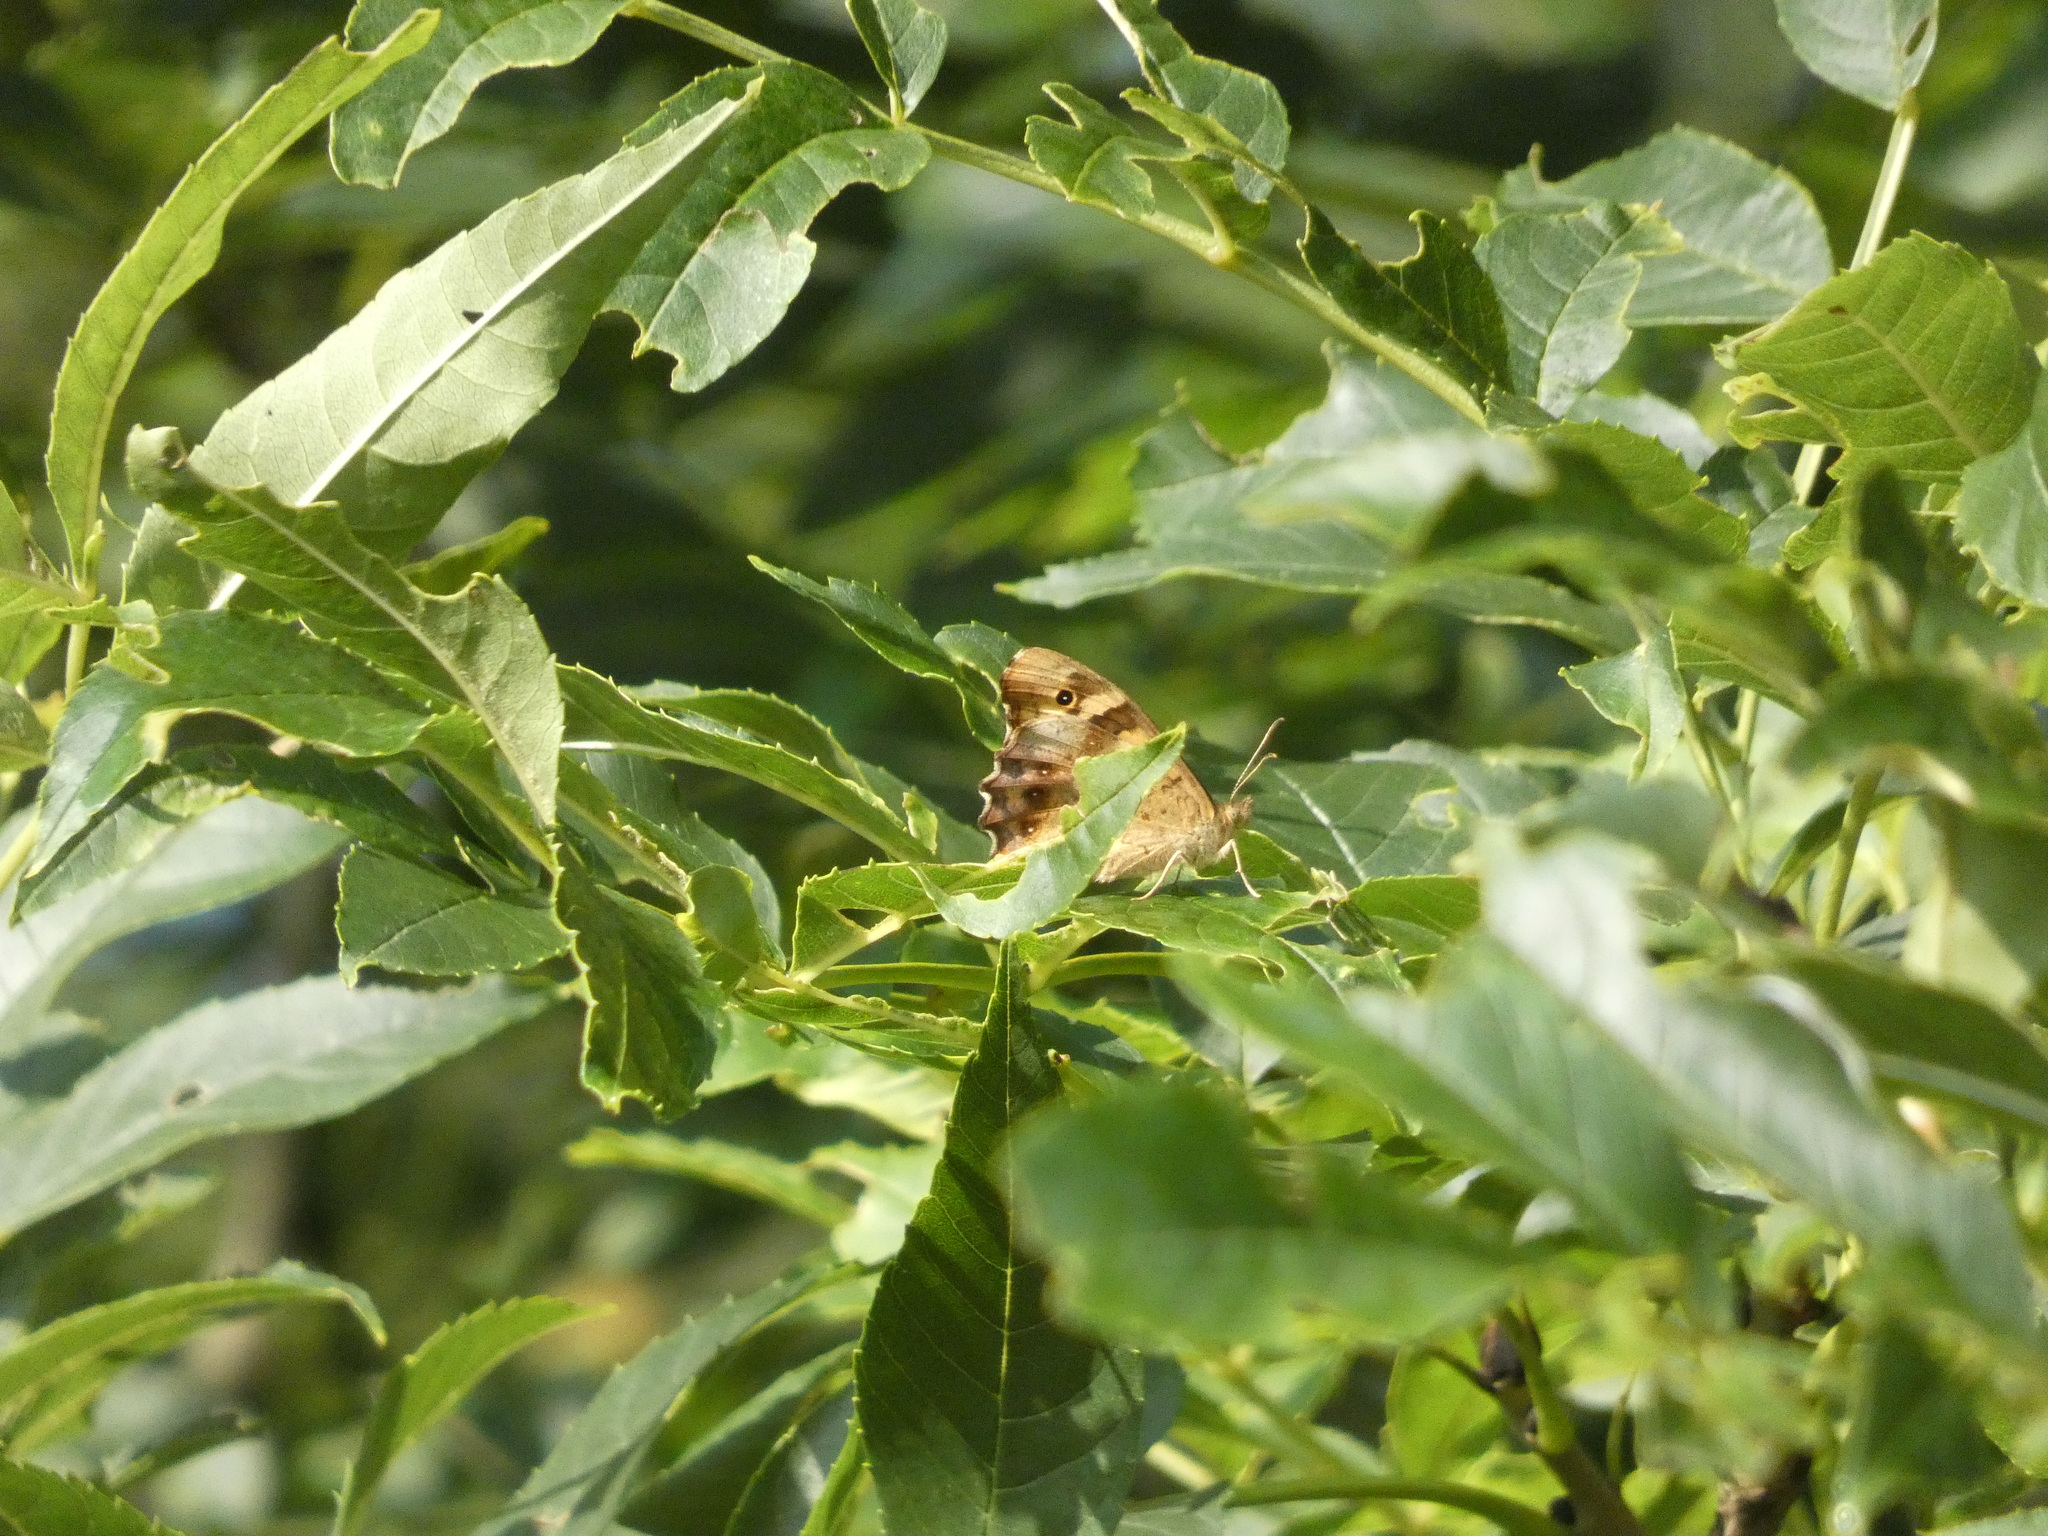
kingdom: Animalia
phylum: Arthropoda
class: Insecta
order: Lepidoptera
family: Nymphalidae
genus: Pararge
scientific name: Pararge aegeria
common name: Speckled wood
